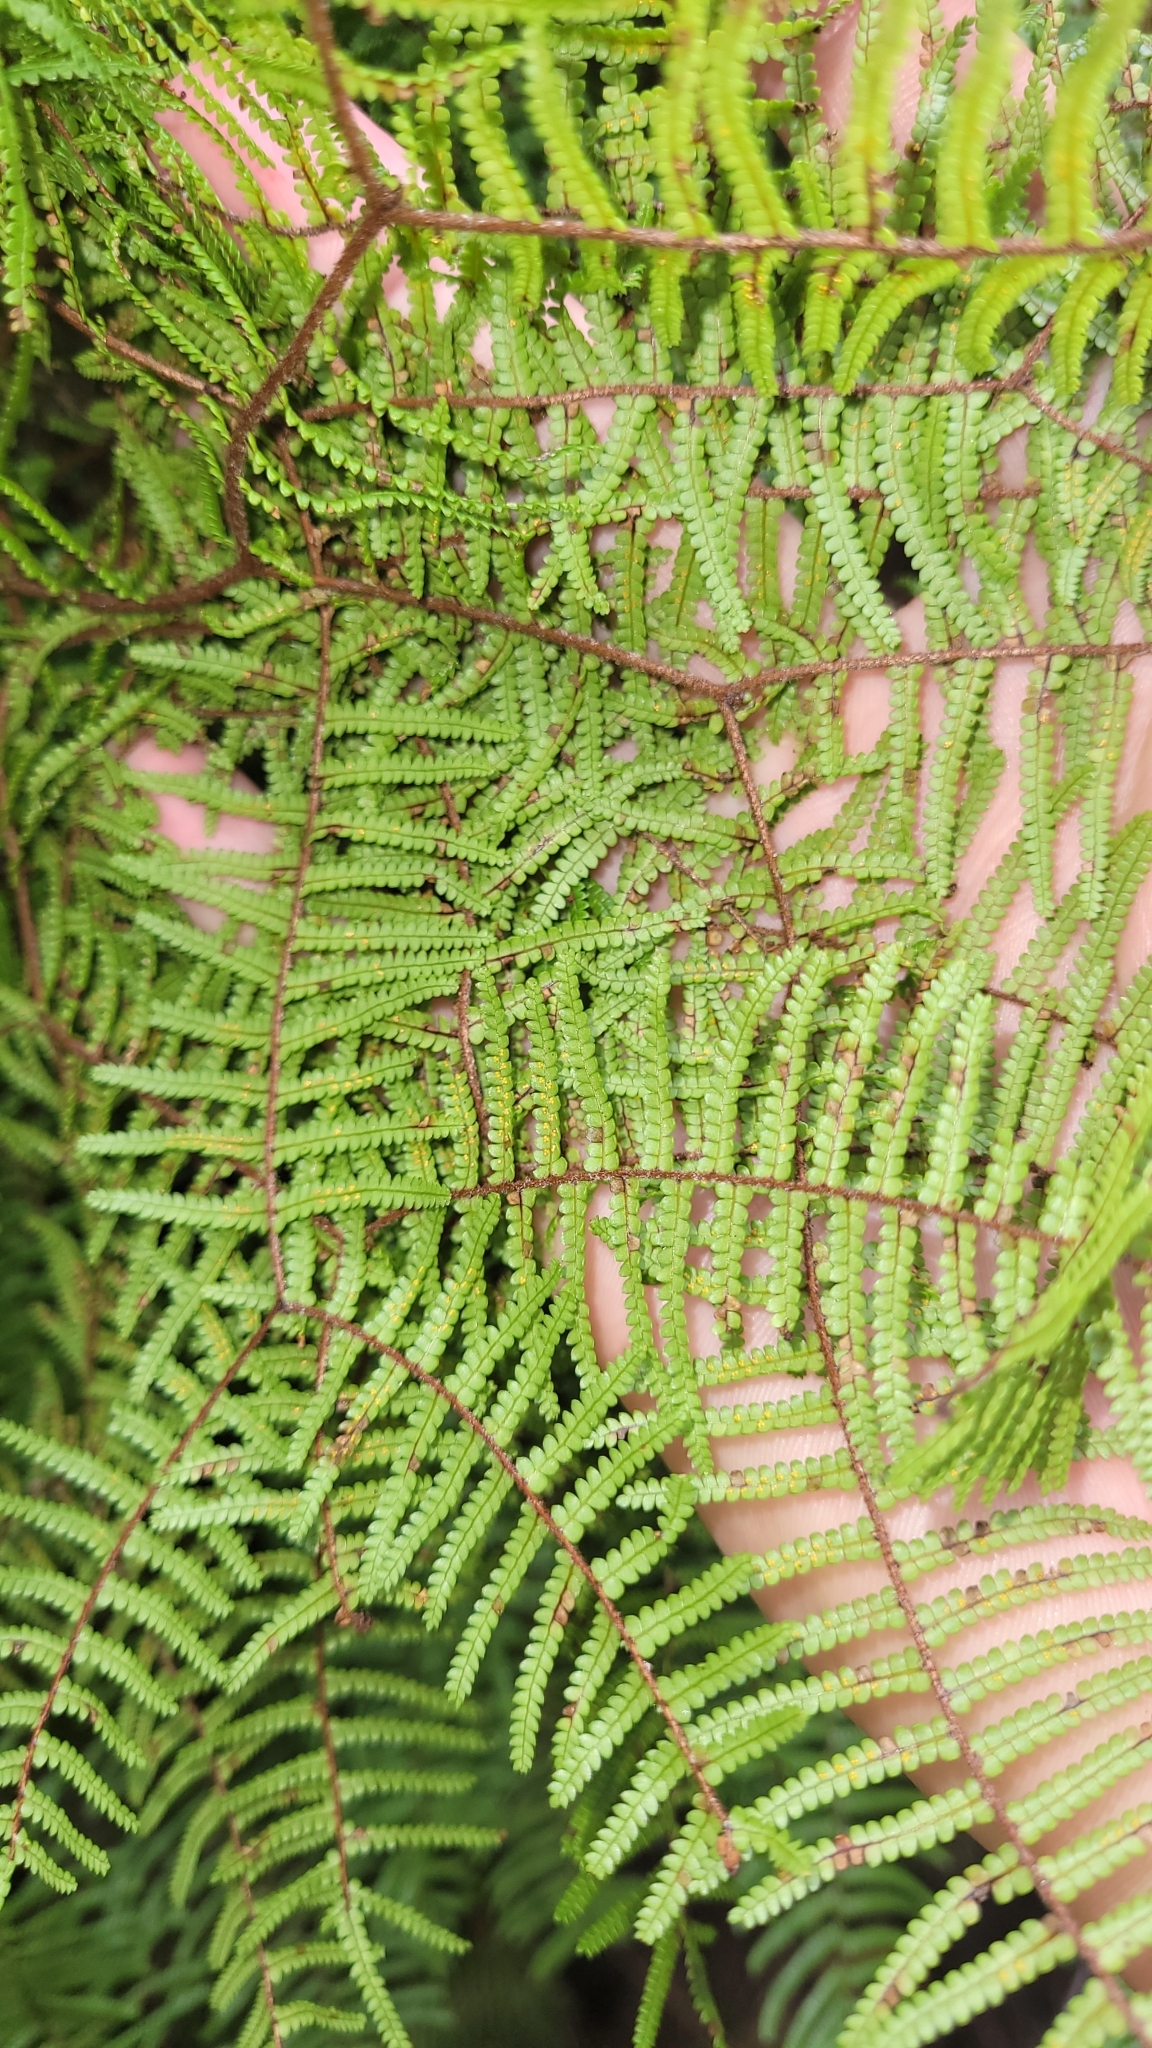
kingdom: Plantae
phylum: Tracheophyta
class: Polypodiopsida
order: Gleicheniales
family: Gleicheniaceae
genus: Gleichenia
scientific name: Gleichenia microphylla
